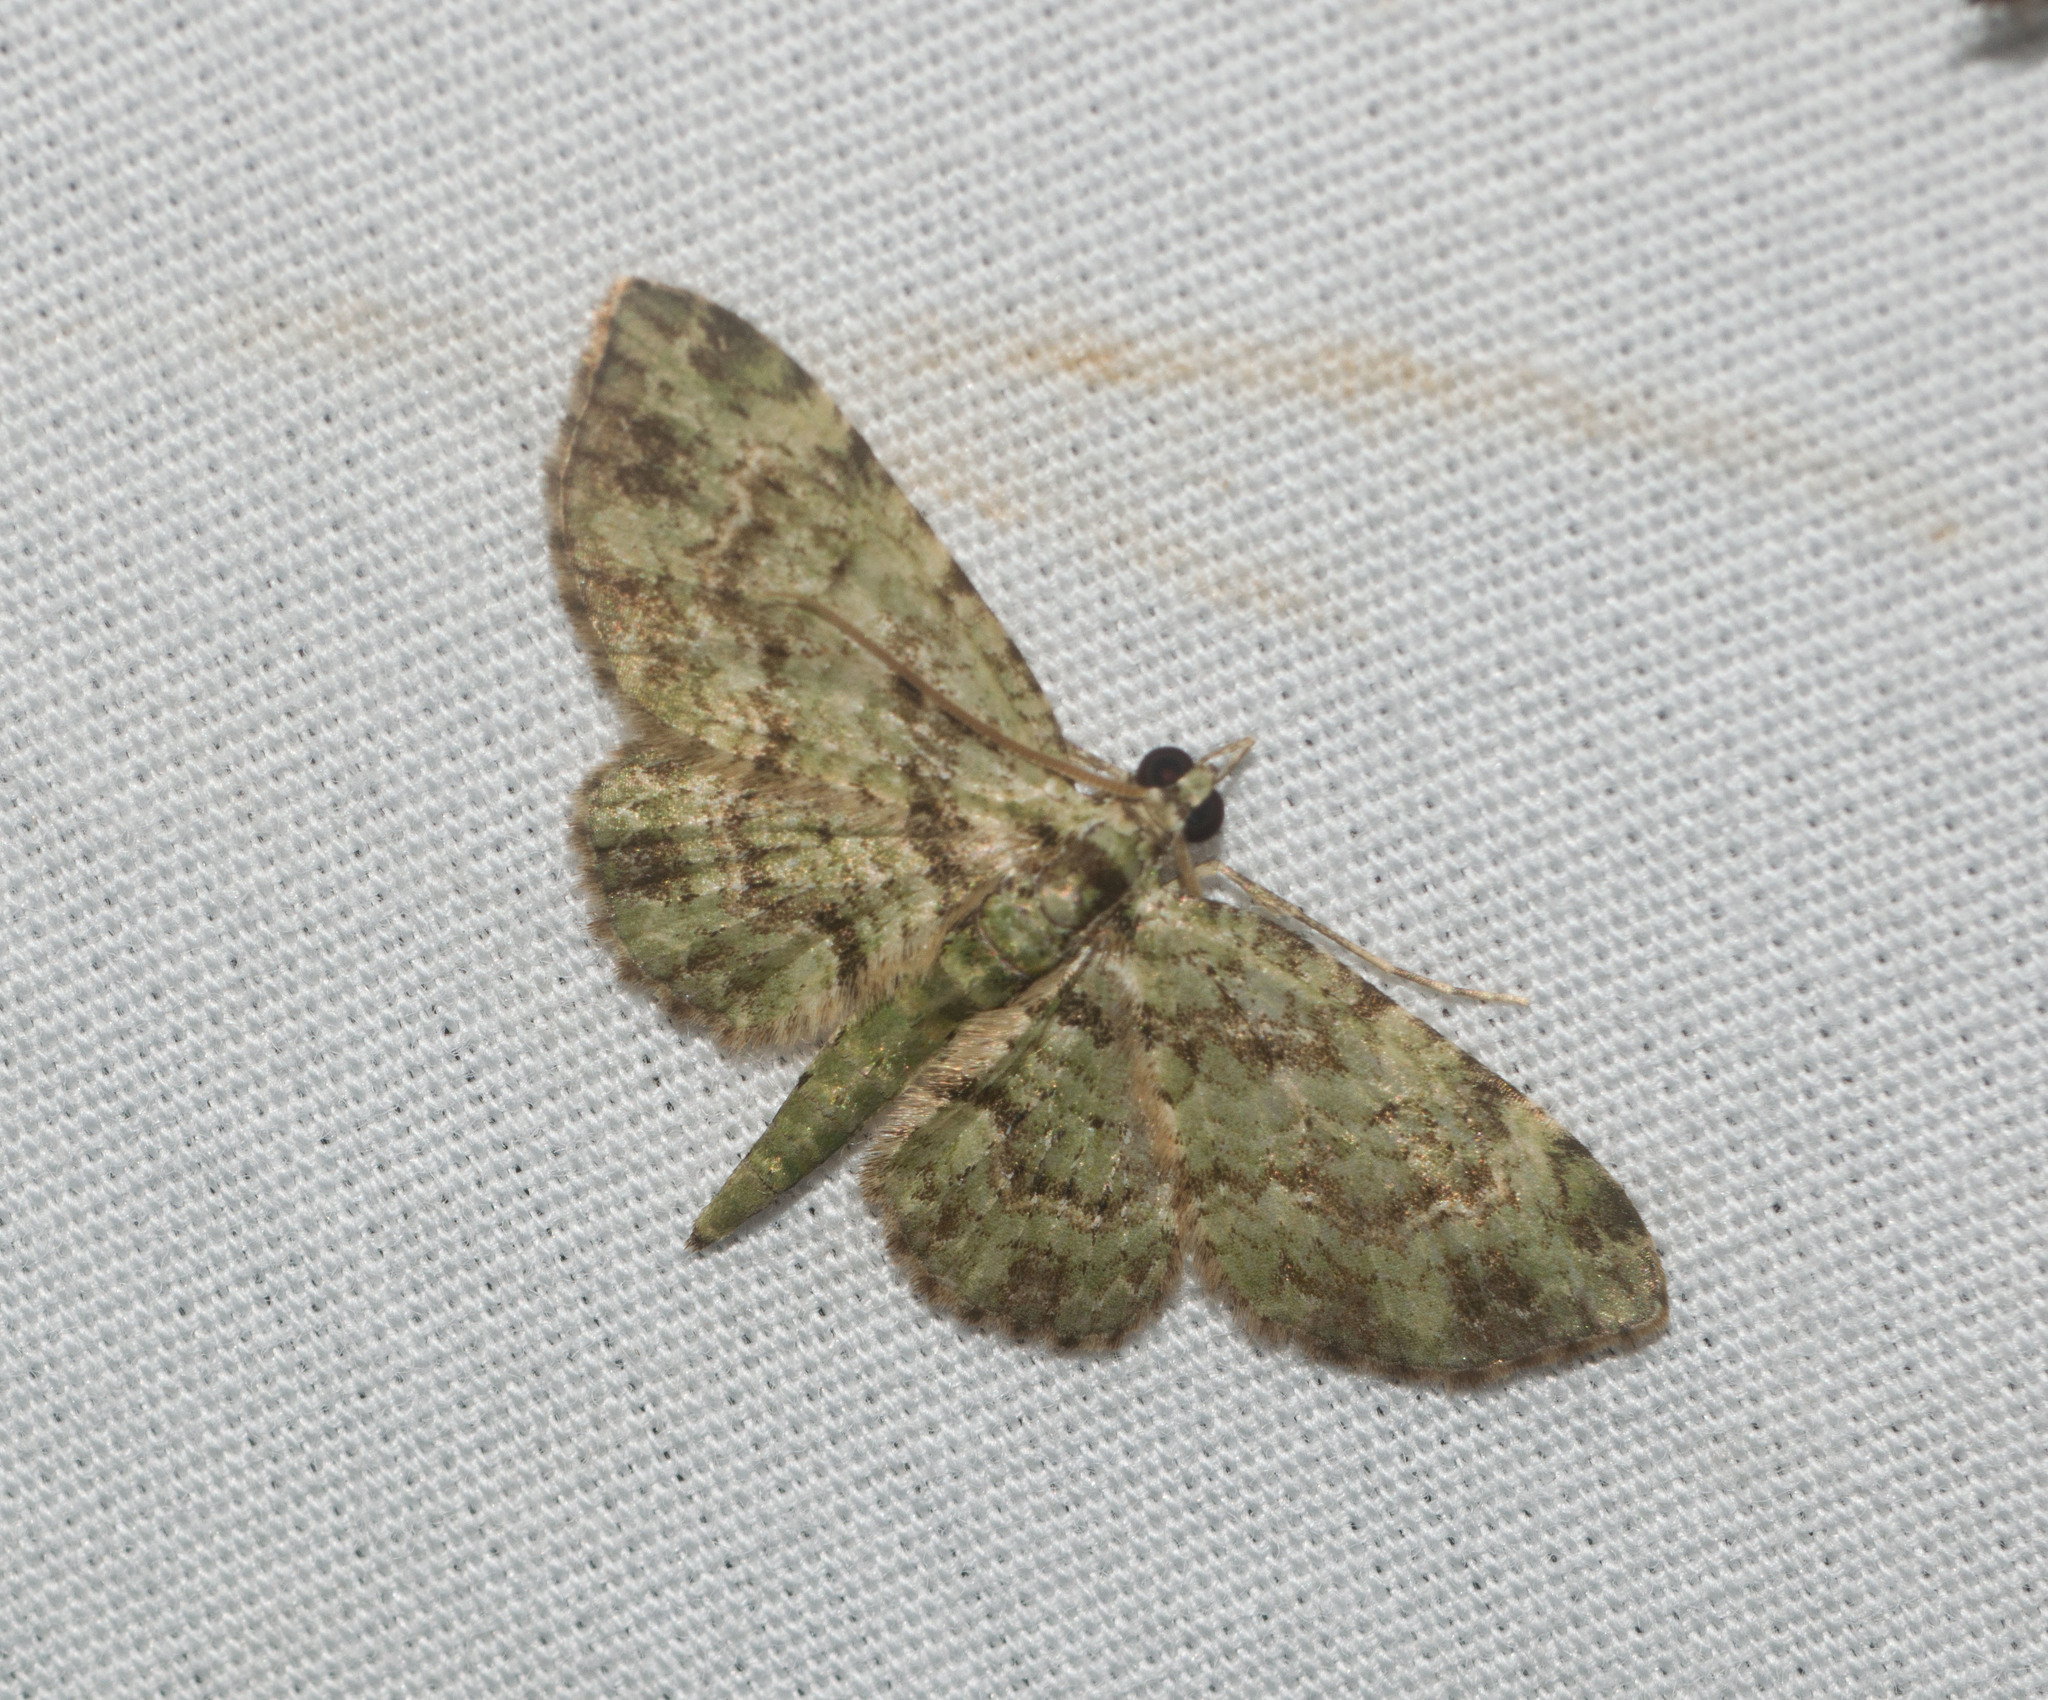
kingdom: Animalia
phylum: Arthropoda
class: Insecta
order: Lepidoptera
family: Geometridae
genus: Eupithecia
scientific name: Eupithecia orichloris
